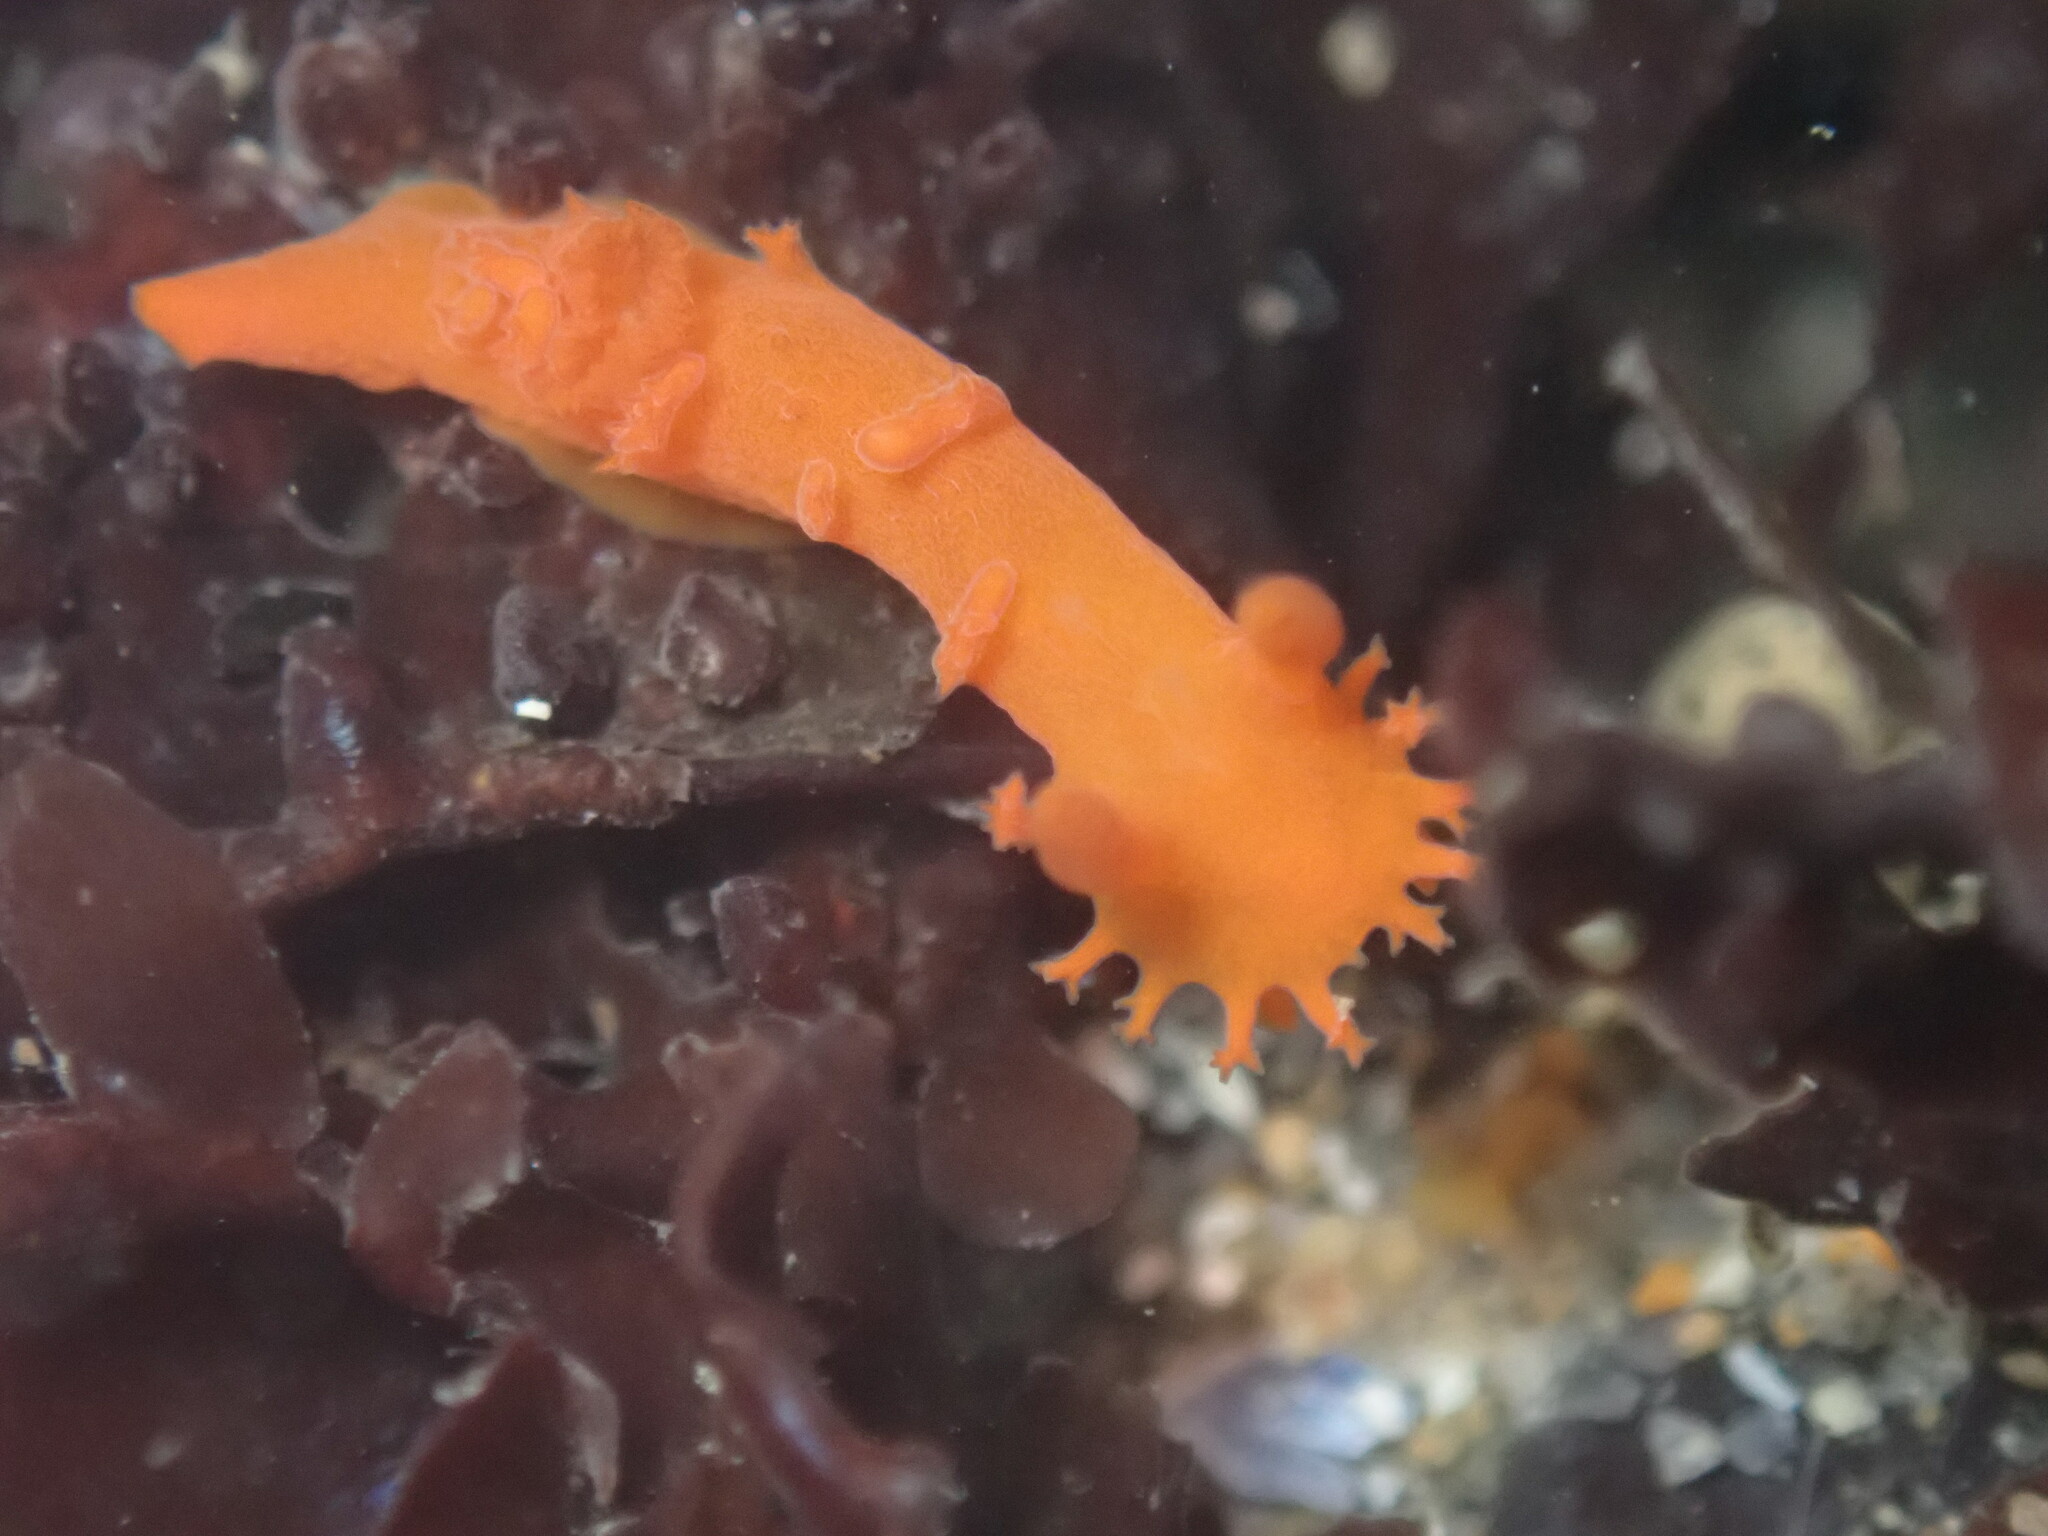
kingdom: Animalia
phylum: Mollusca
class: Gastropoda
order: Nudibranchia
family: Polyceridae
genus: Triopha
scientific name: Triopha maculata
